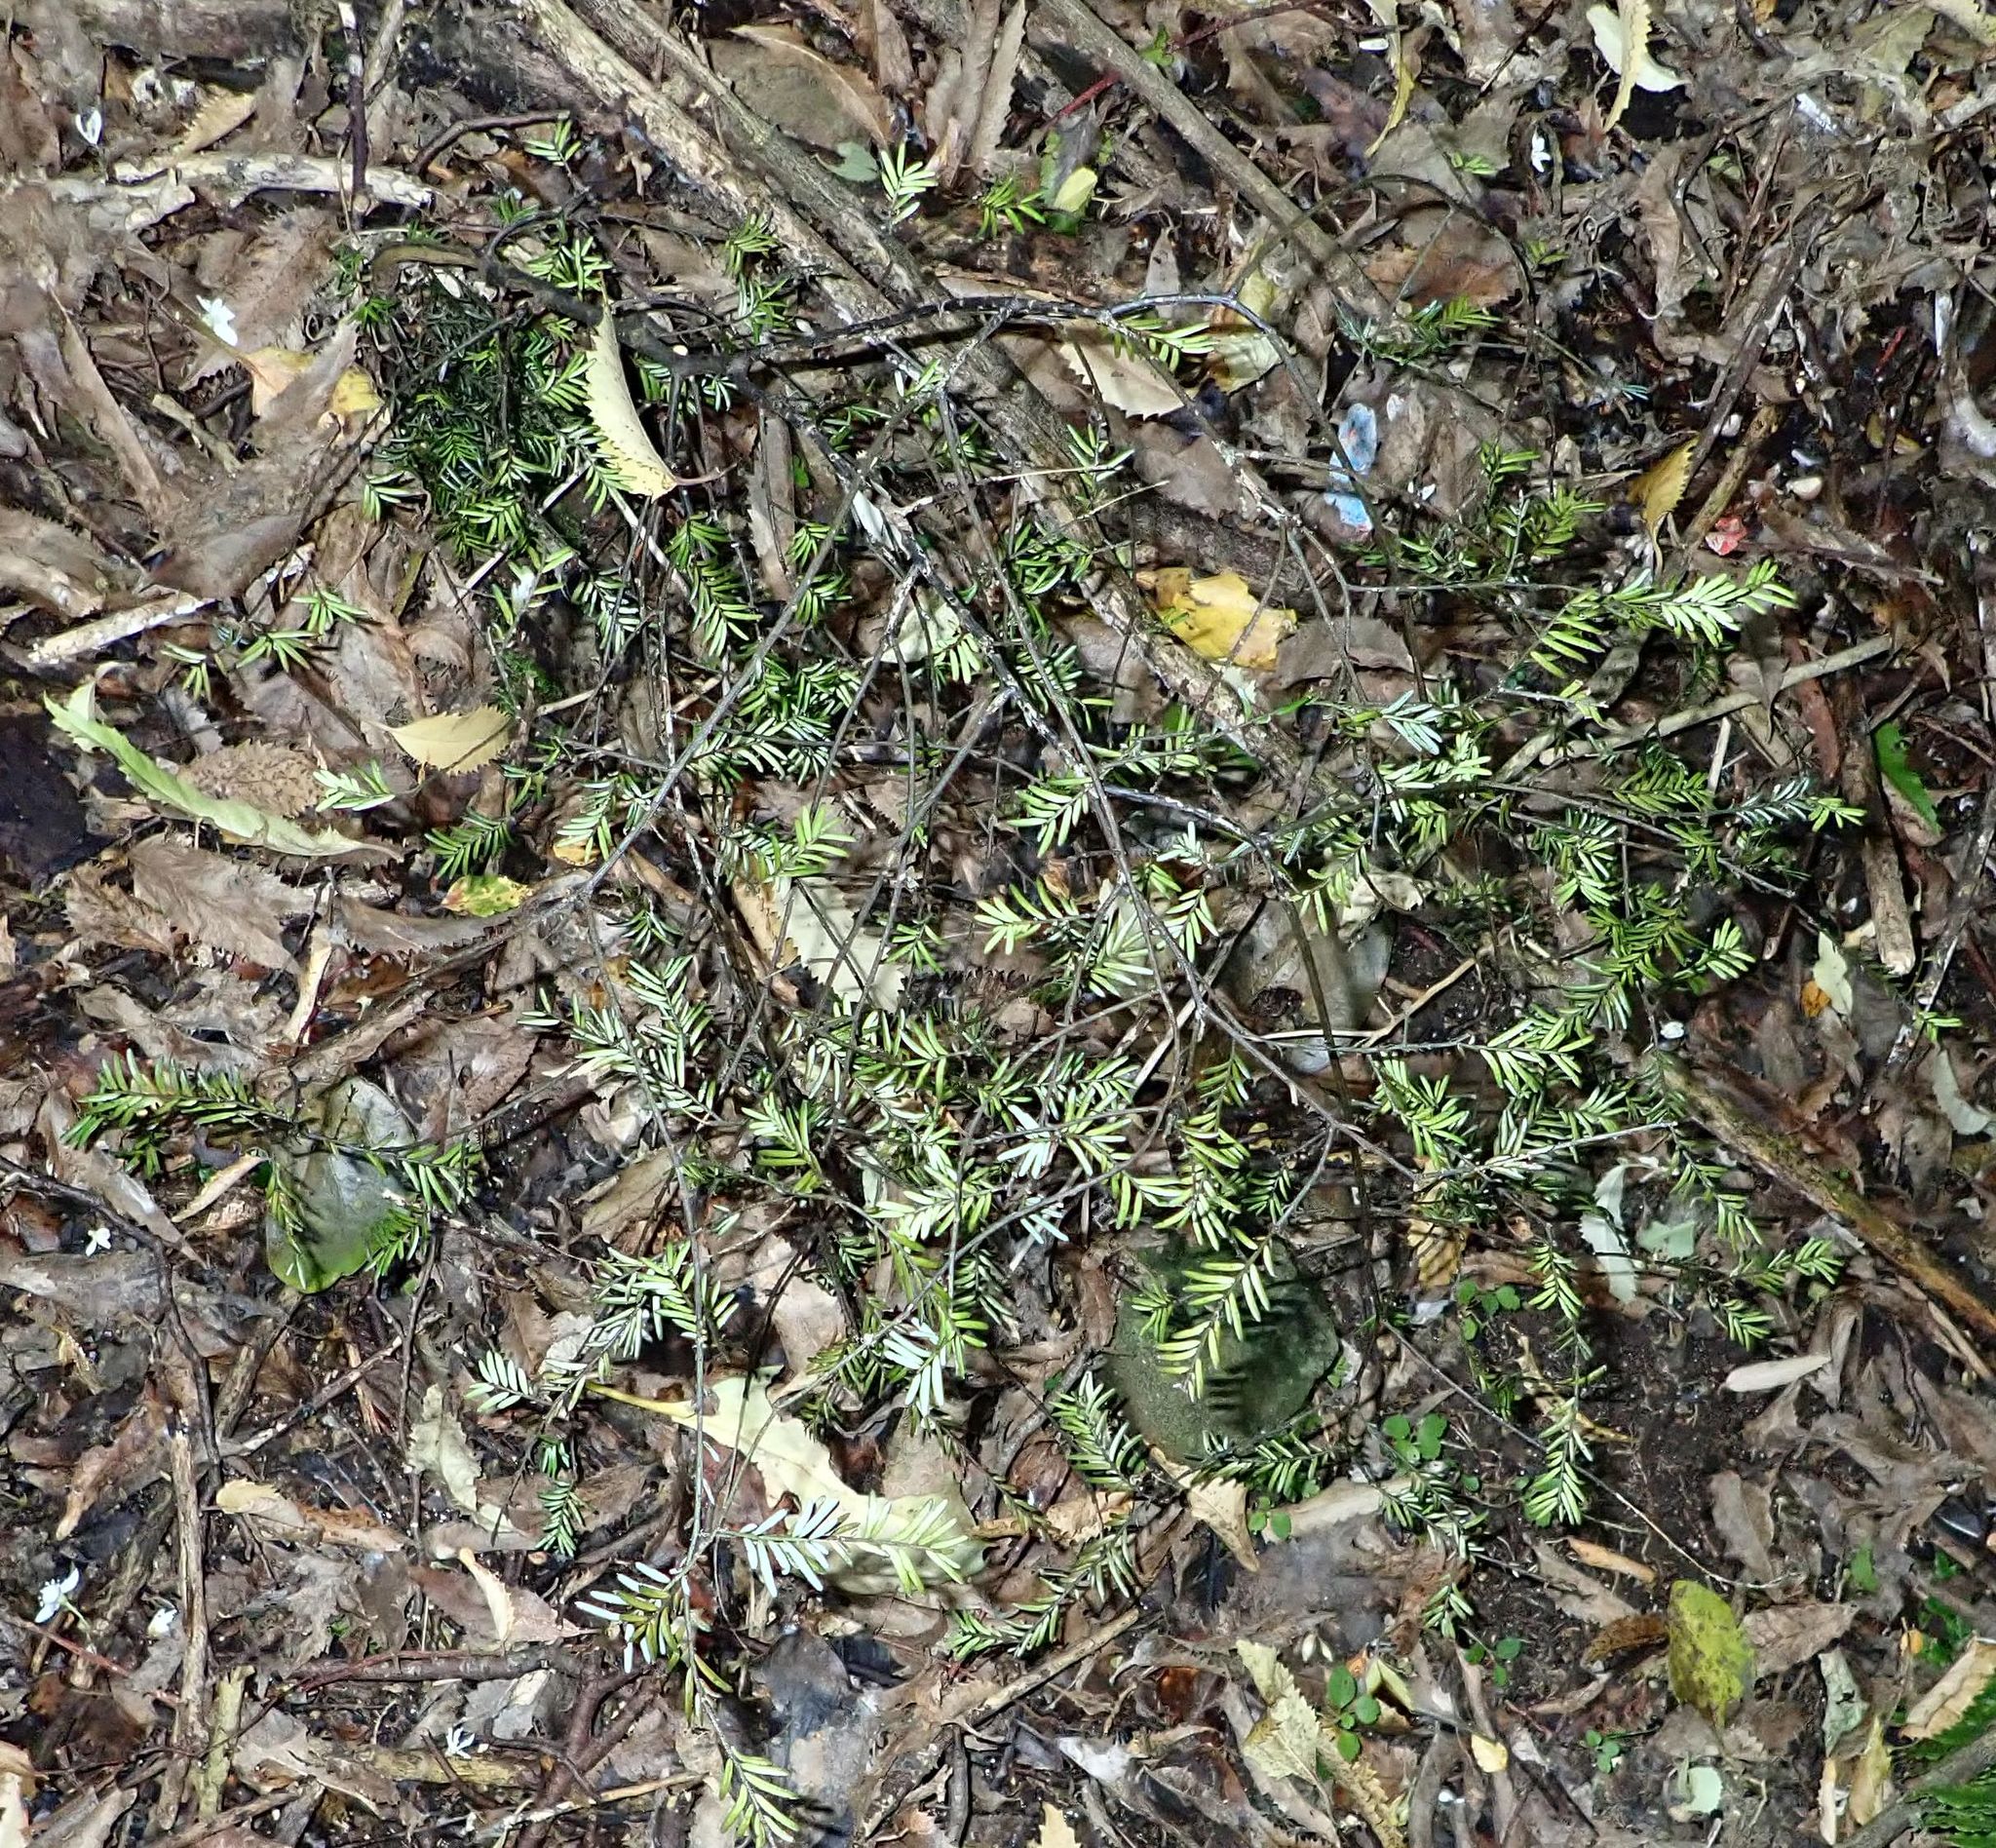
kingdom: Plantae
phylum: Tracheophyta
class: Pinopsida
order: Pinales
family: Podocarpaceae
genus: Prumnopitys
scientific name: Prumnopitys taxifolia
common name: Matai
